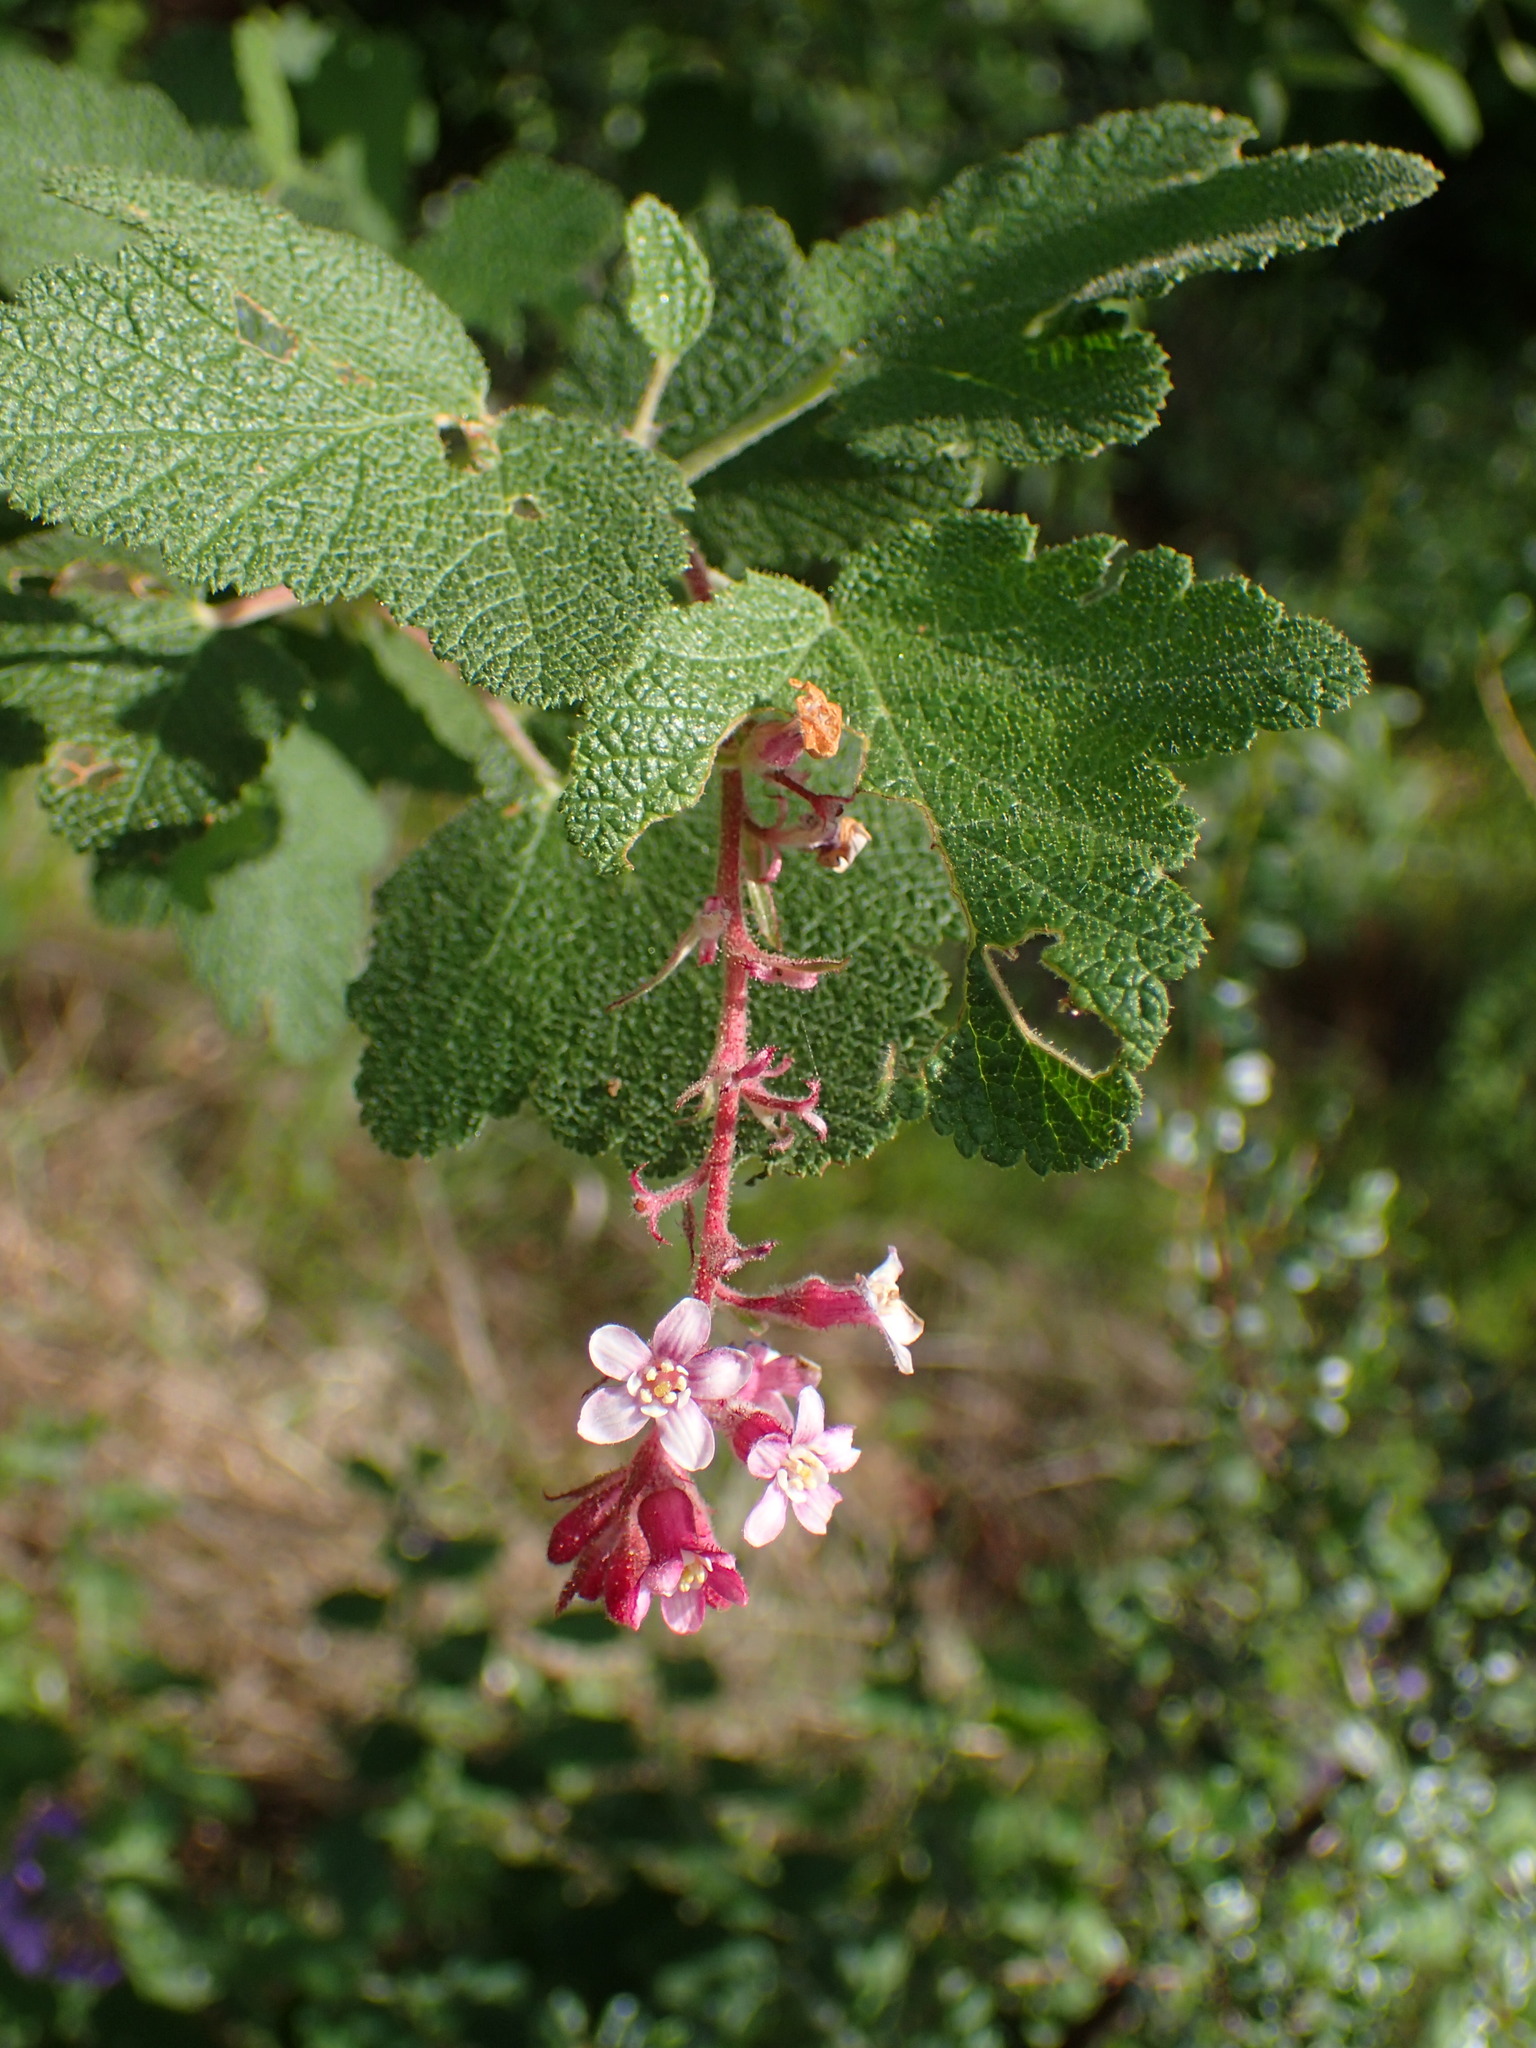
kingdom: Plantae
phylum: Tracheophyta
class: Magnoliopsida
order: Saxifragales
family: Grossulariaceae
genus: Ribes
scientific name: Ribes malvaceum
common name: Chaparral currant
